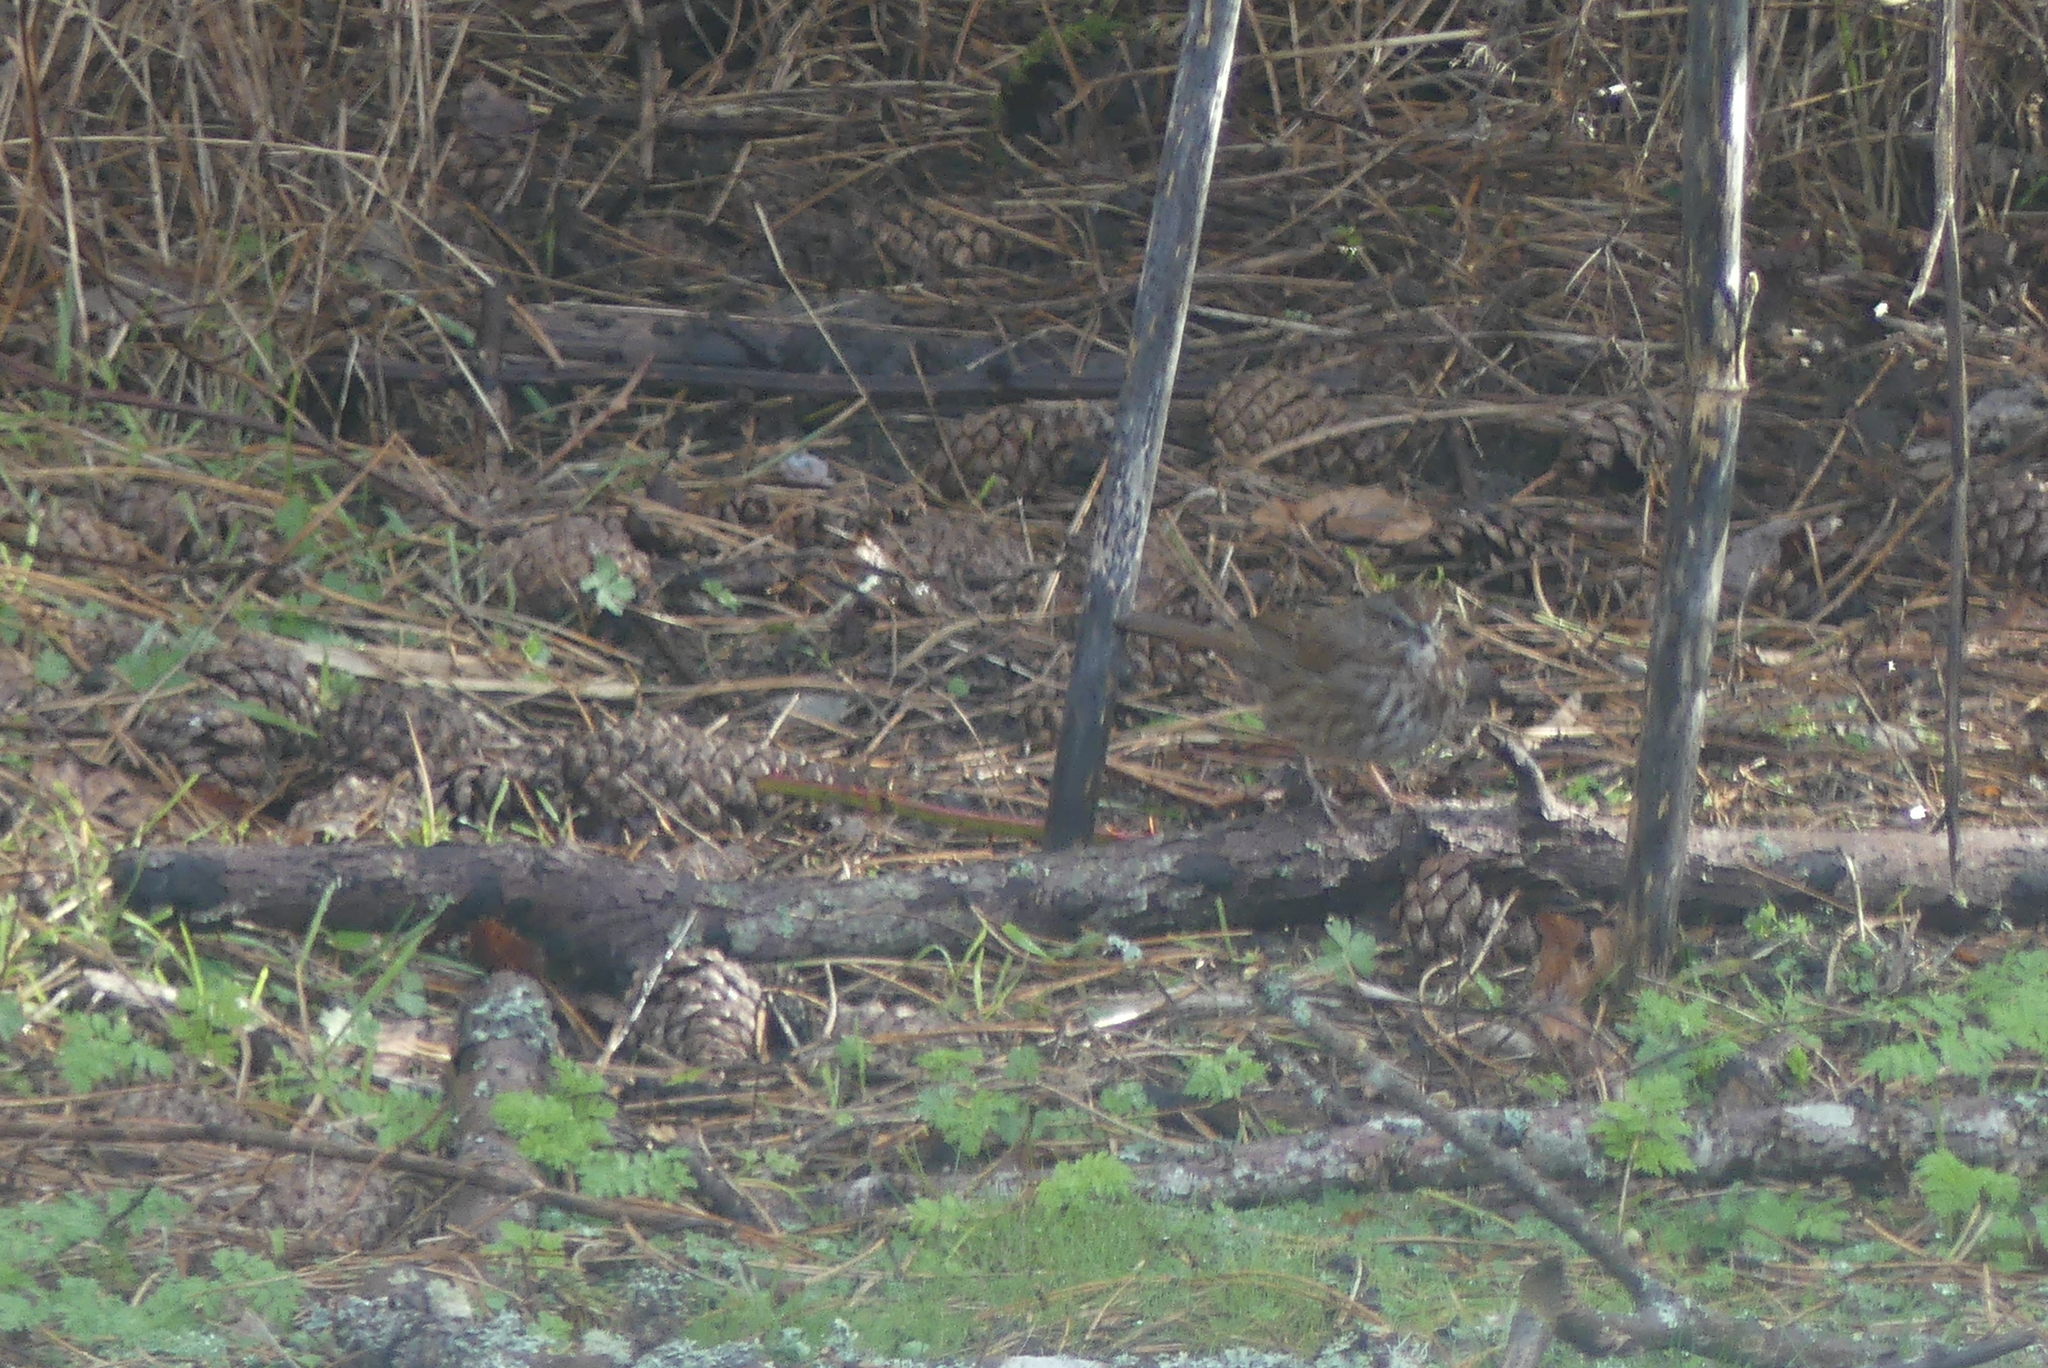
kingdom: Animalia
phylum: Chordata
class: Aves
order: Passeriformes
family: Passerellidae
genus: Melospiza
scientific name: Melospiza melodia
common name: Song sparrow
